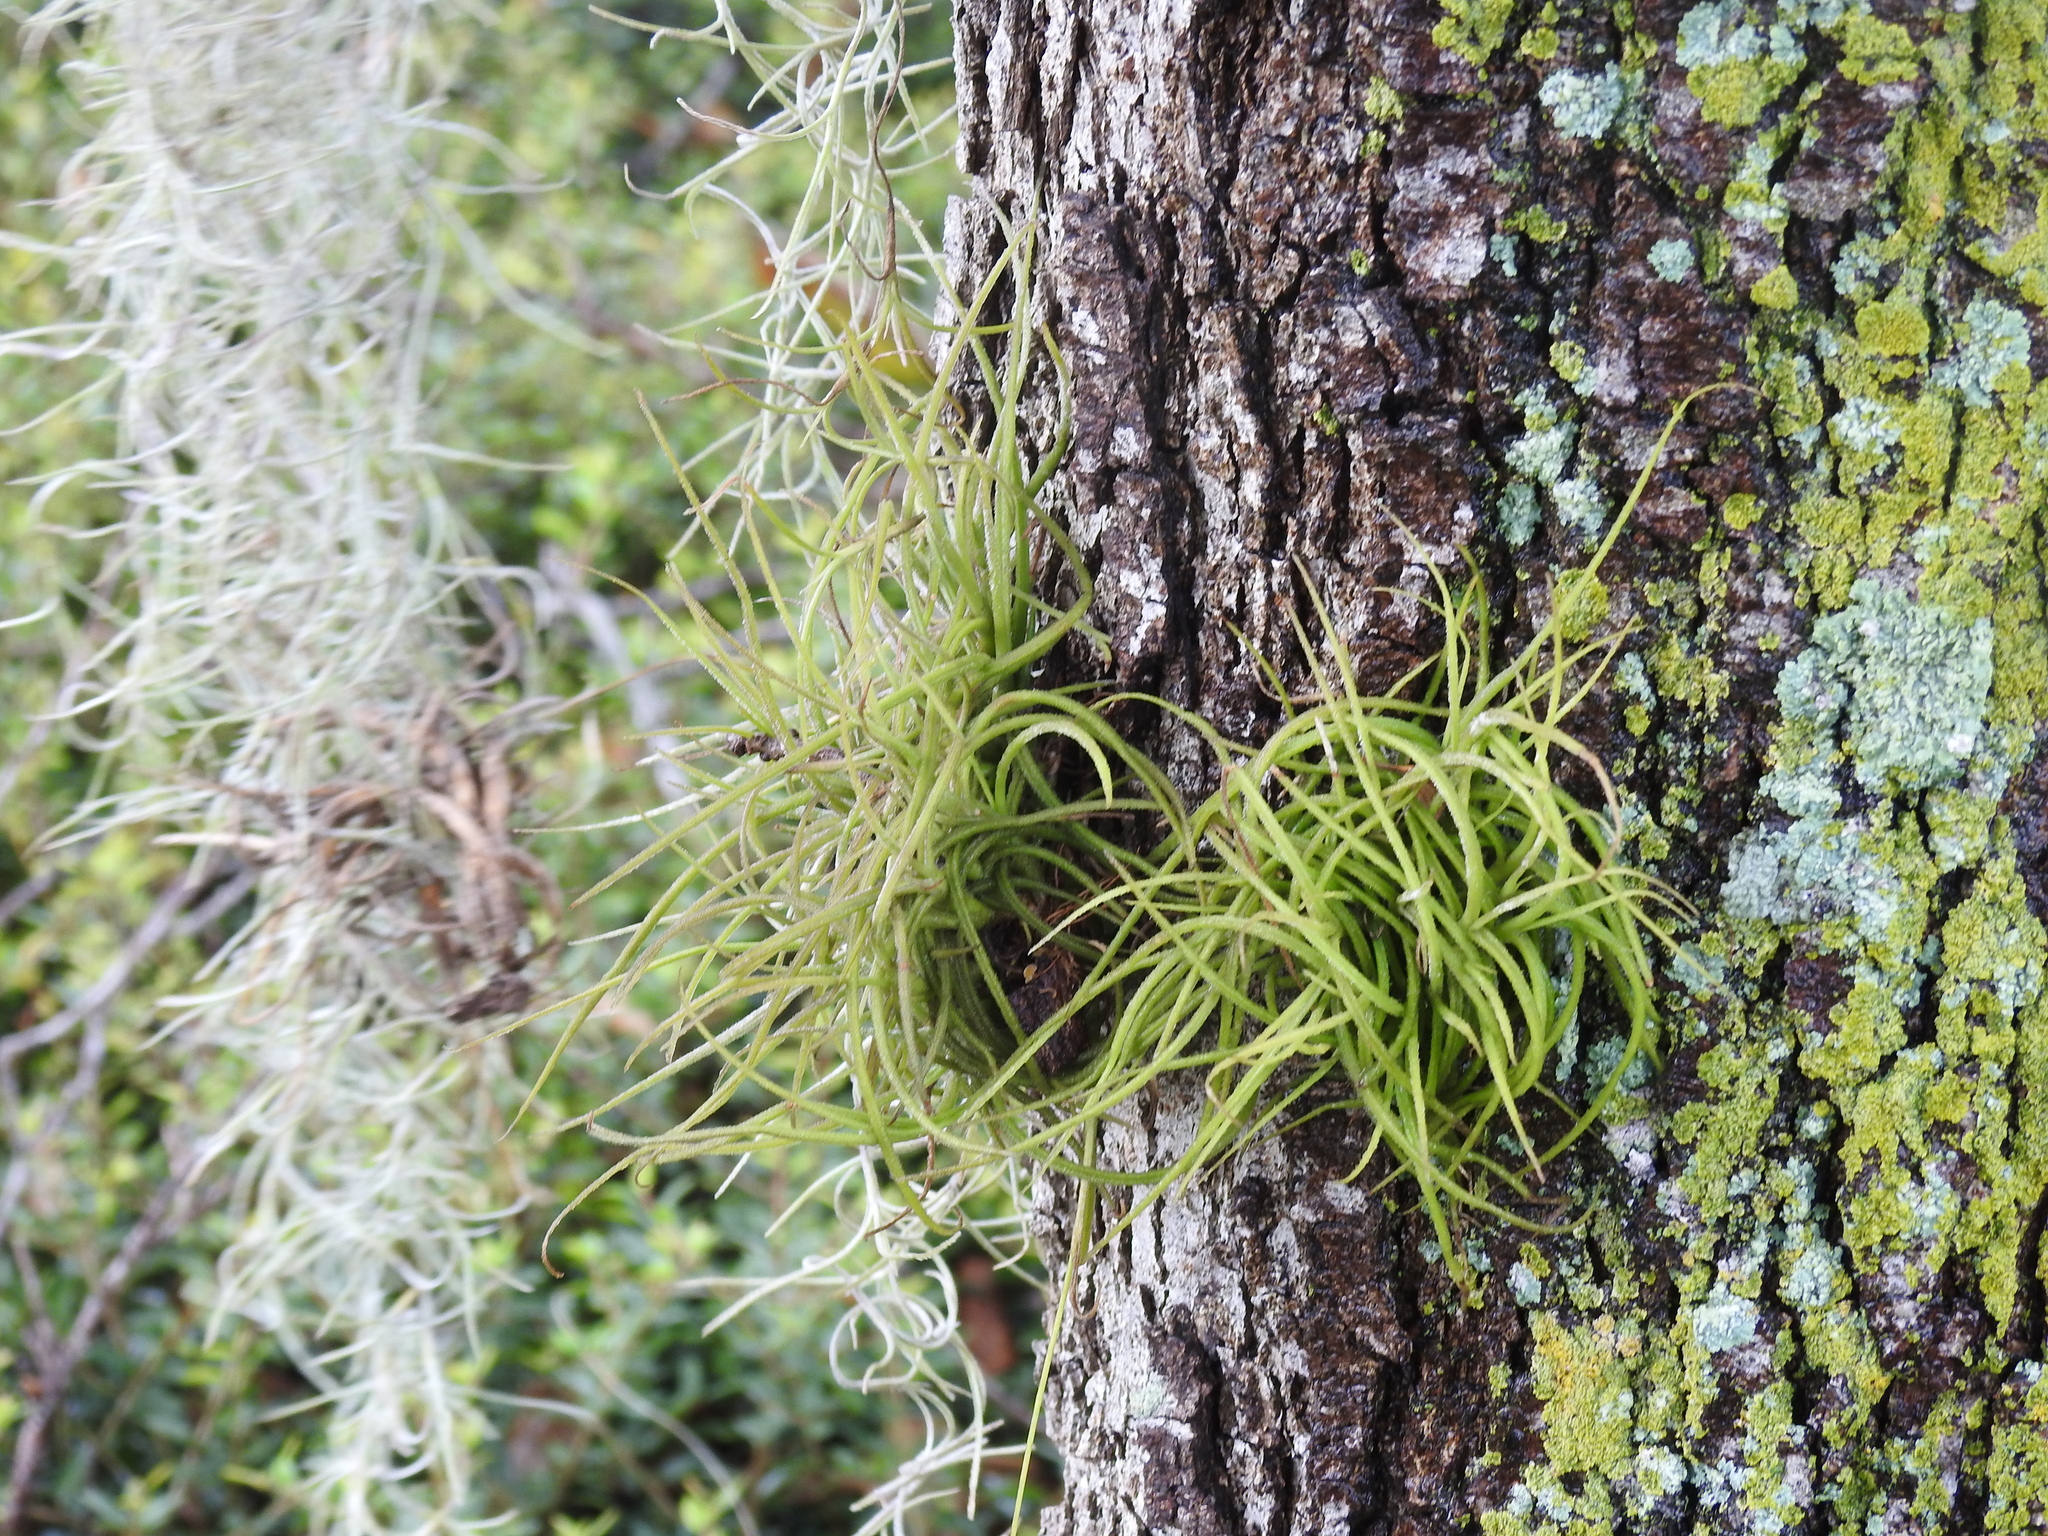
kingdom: Plantae
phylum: Tracheophyta
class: Liliopsida
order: Poales
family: Bromeliaceae
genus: Tillandsia
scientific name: Tillandsia recurvata
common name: Small ballmoss
